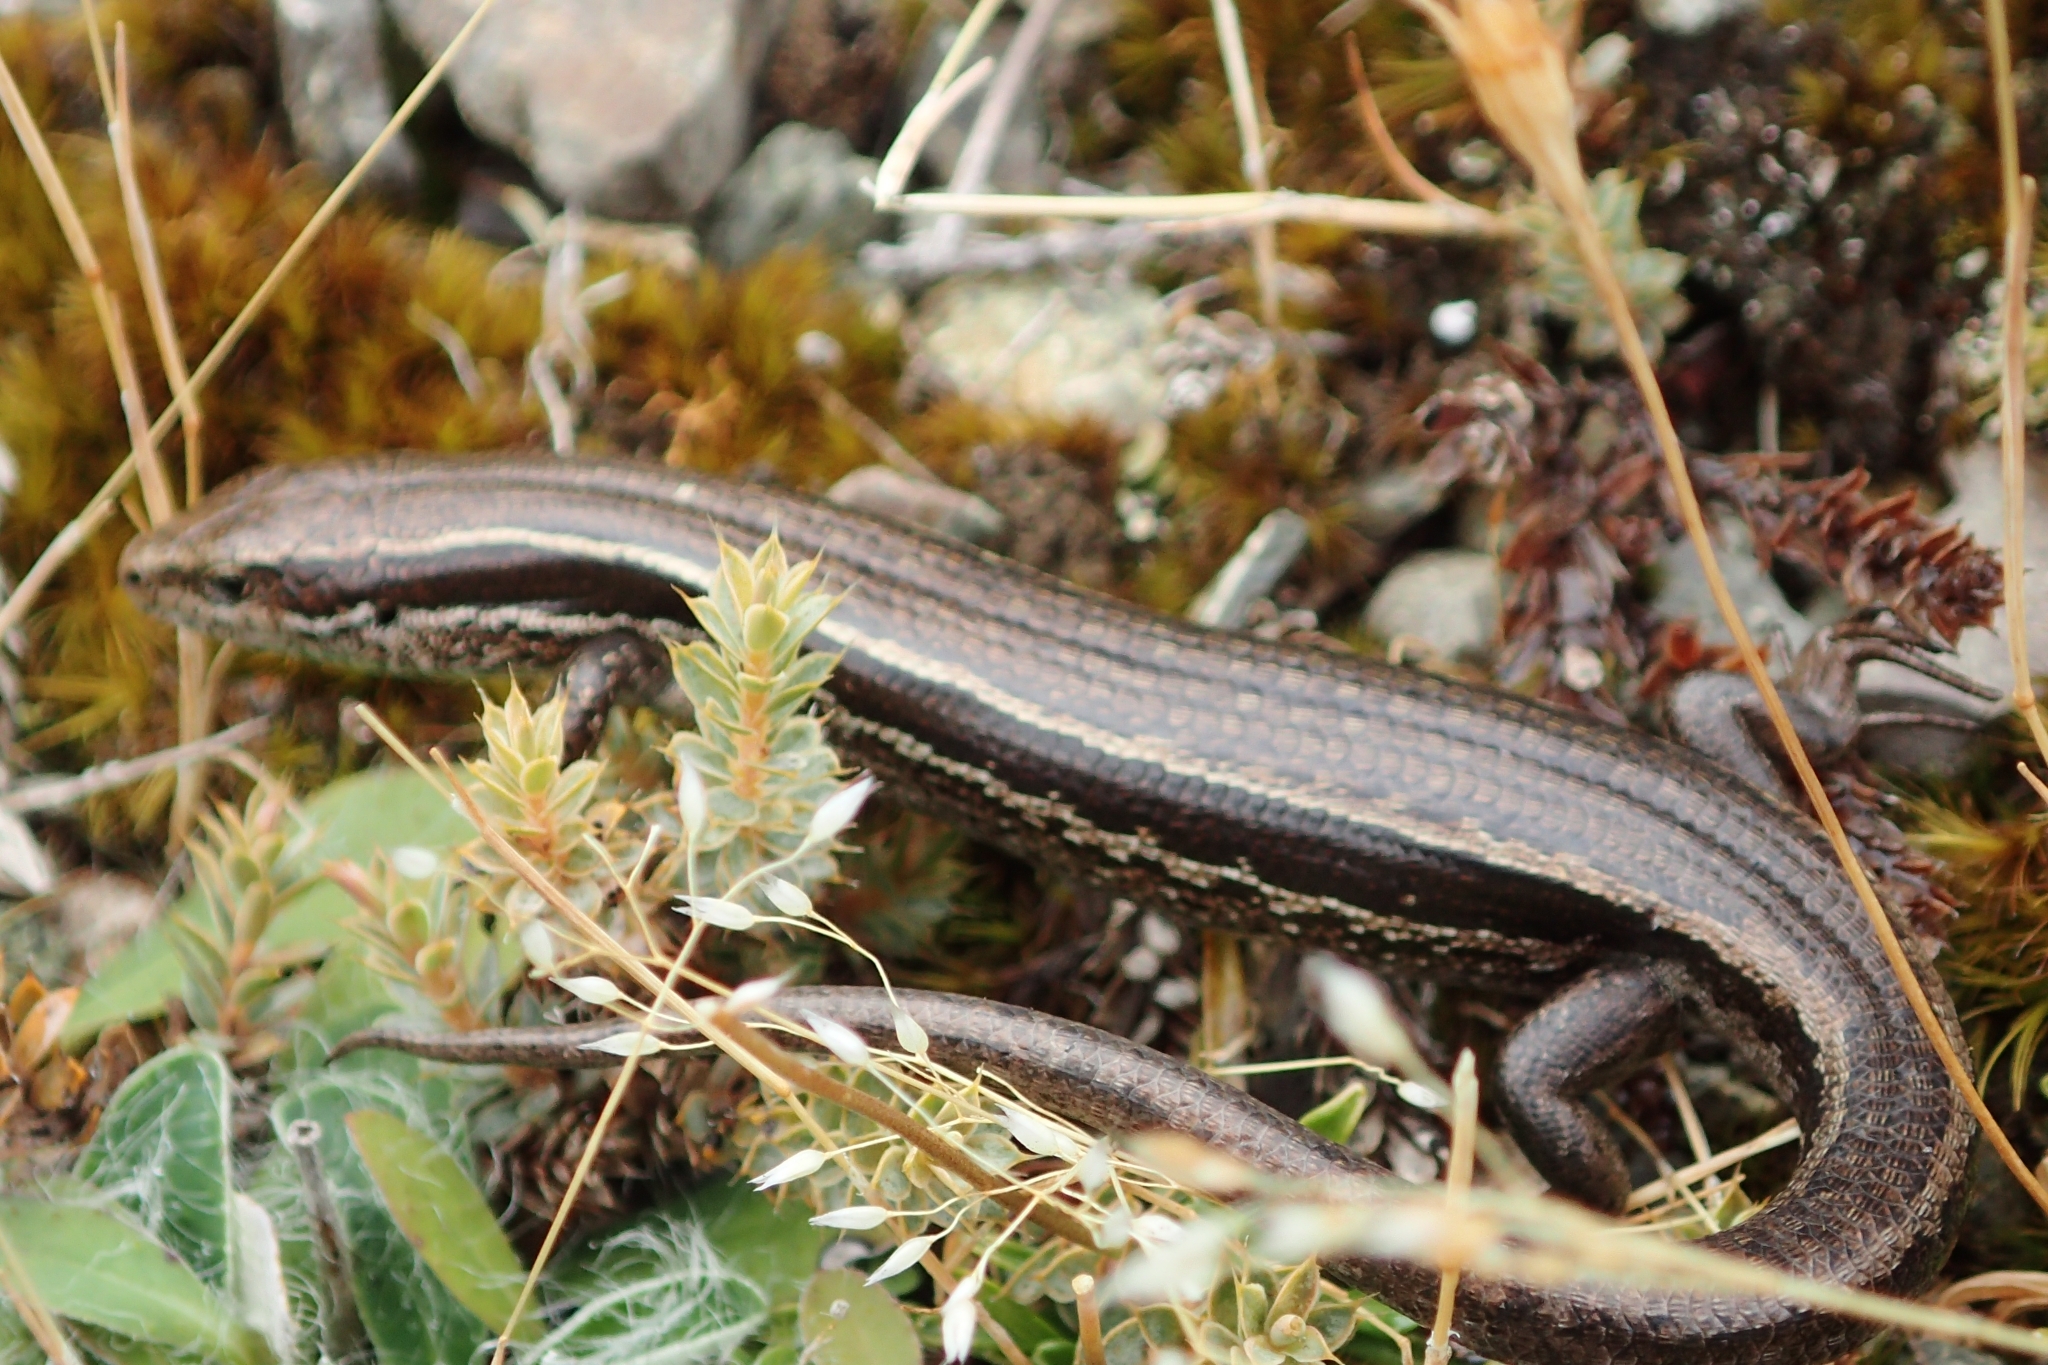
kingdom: Animalia
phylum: Chordata
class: Squamata
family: Scincidae
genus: Oligosoma
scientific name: Oligosoma repens
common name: Eyres skink
